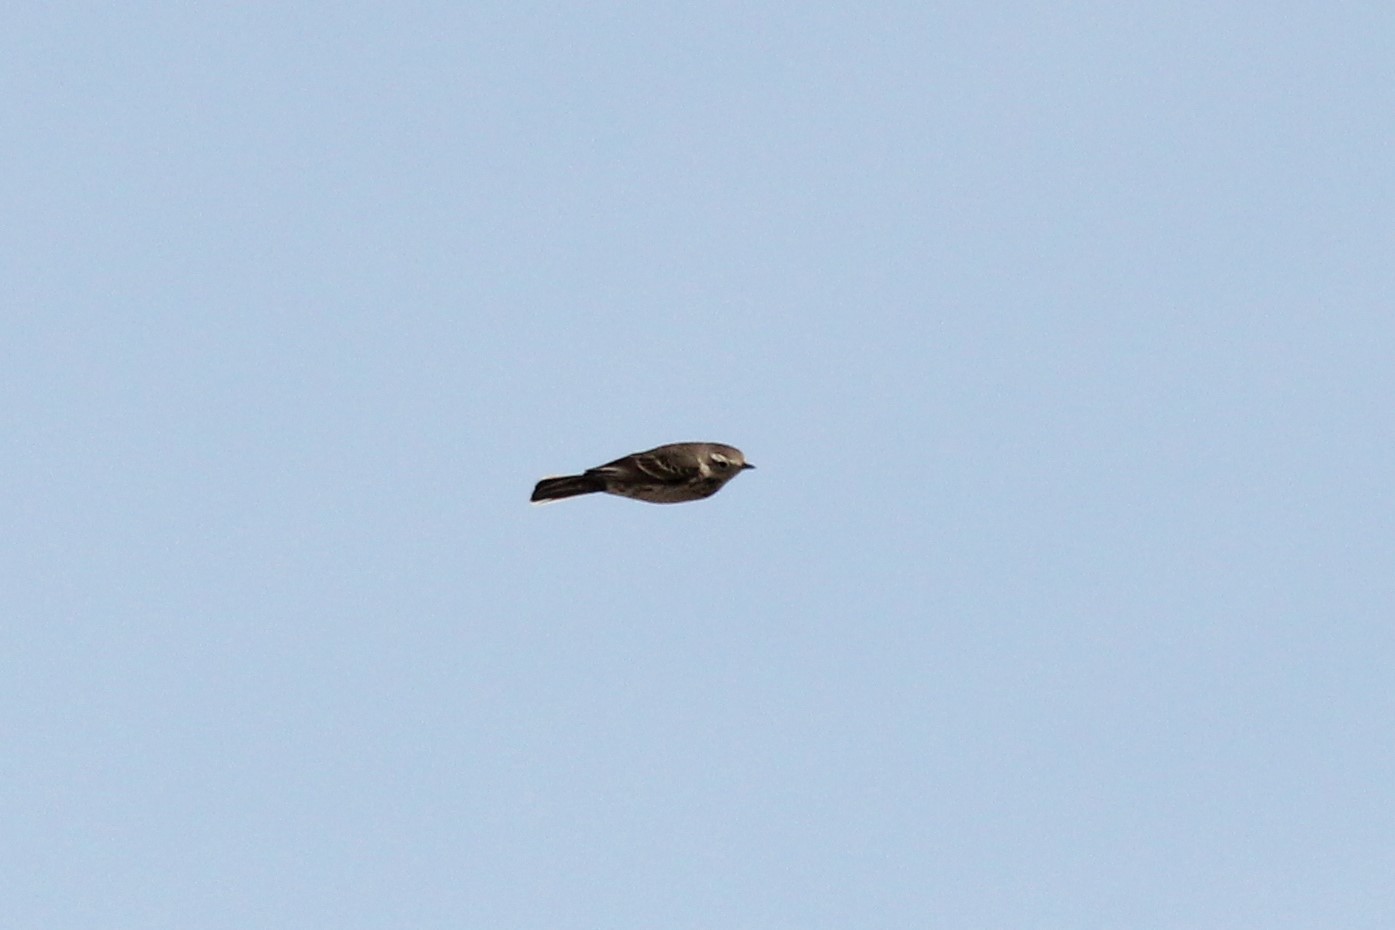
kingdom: Animalia
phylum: Chordata
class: Aves
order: Passeriformes
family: Motacillidae
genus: Anthus
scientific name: Anthus rubescens
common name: Buff-bellied pipit
